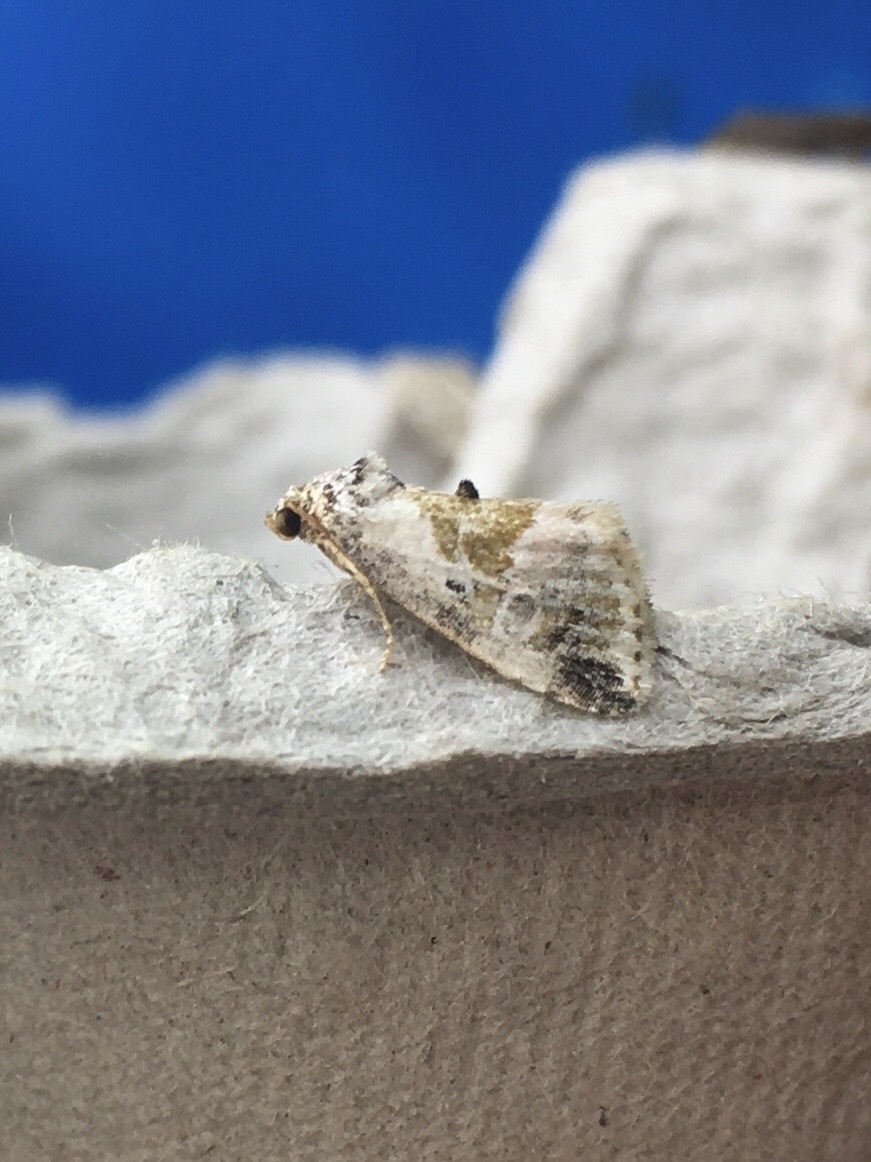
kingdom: Animalia
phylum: Arthropoda
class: Insecta
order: Lepidoptera
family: Noctuidae
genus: Maliattha
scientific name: Maliattha synochitis
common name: Black-dotted glyph
